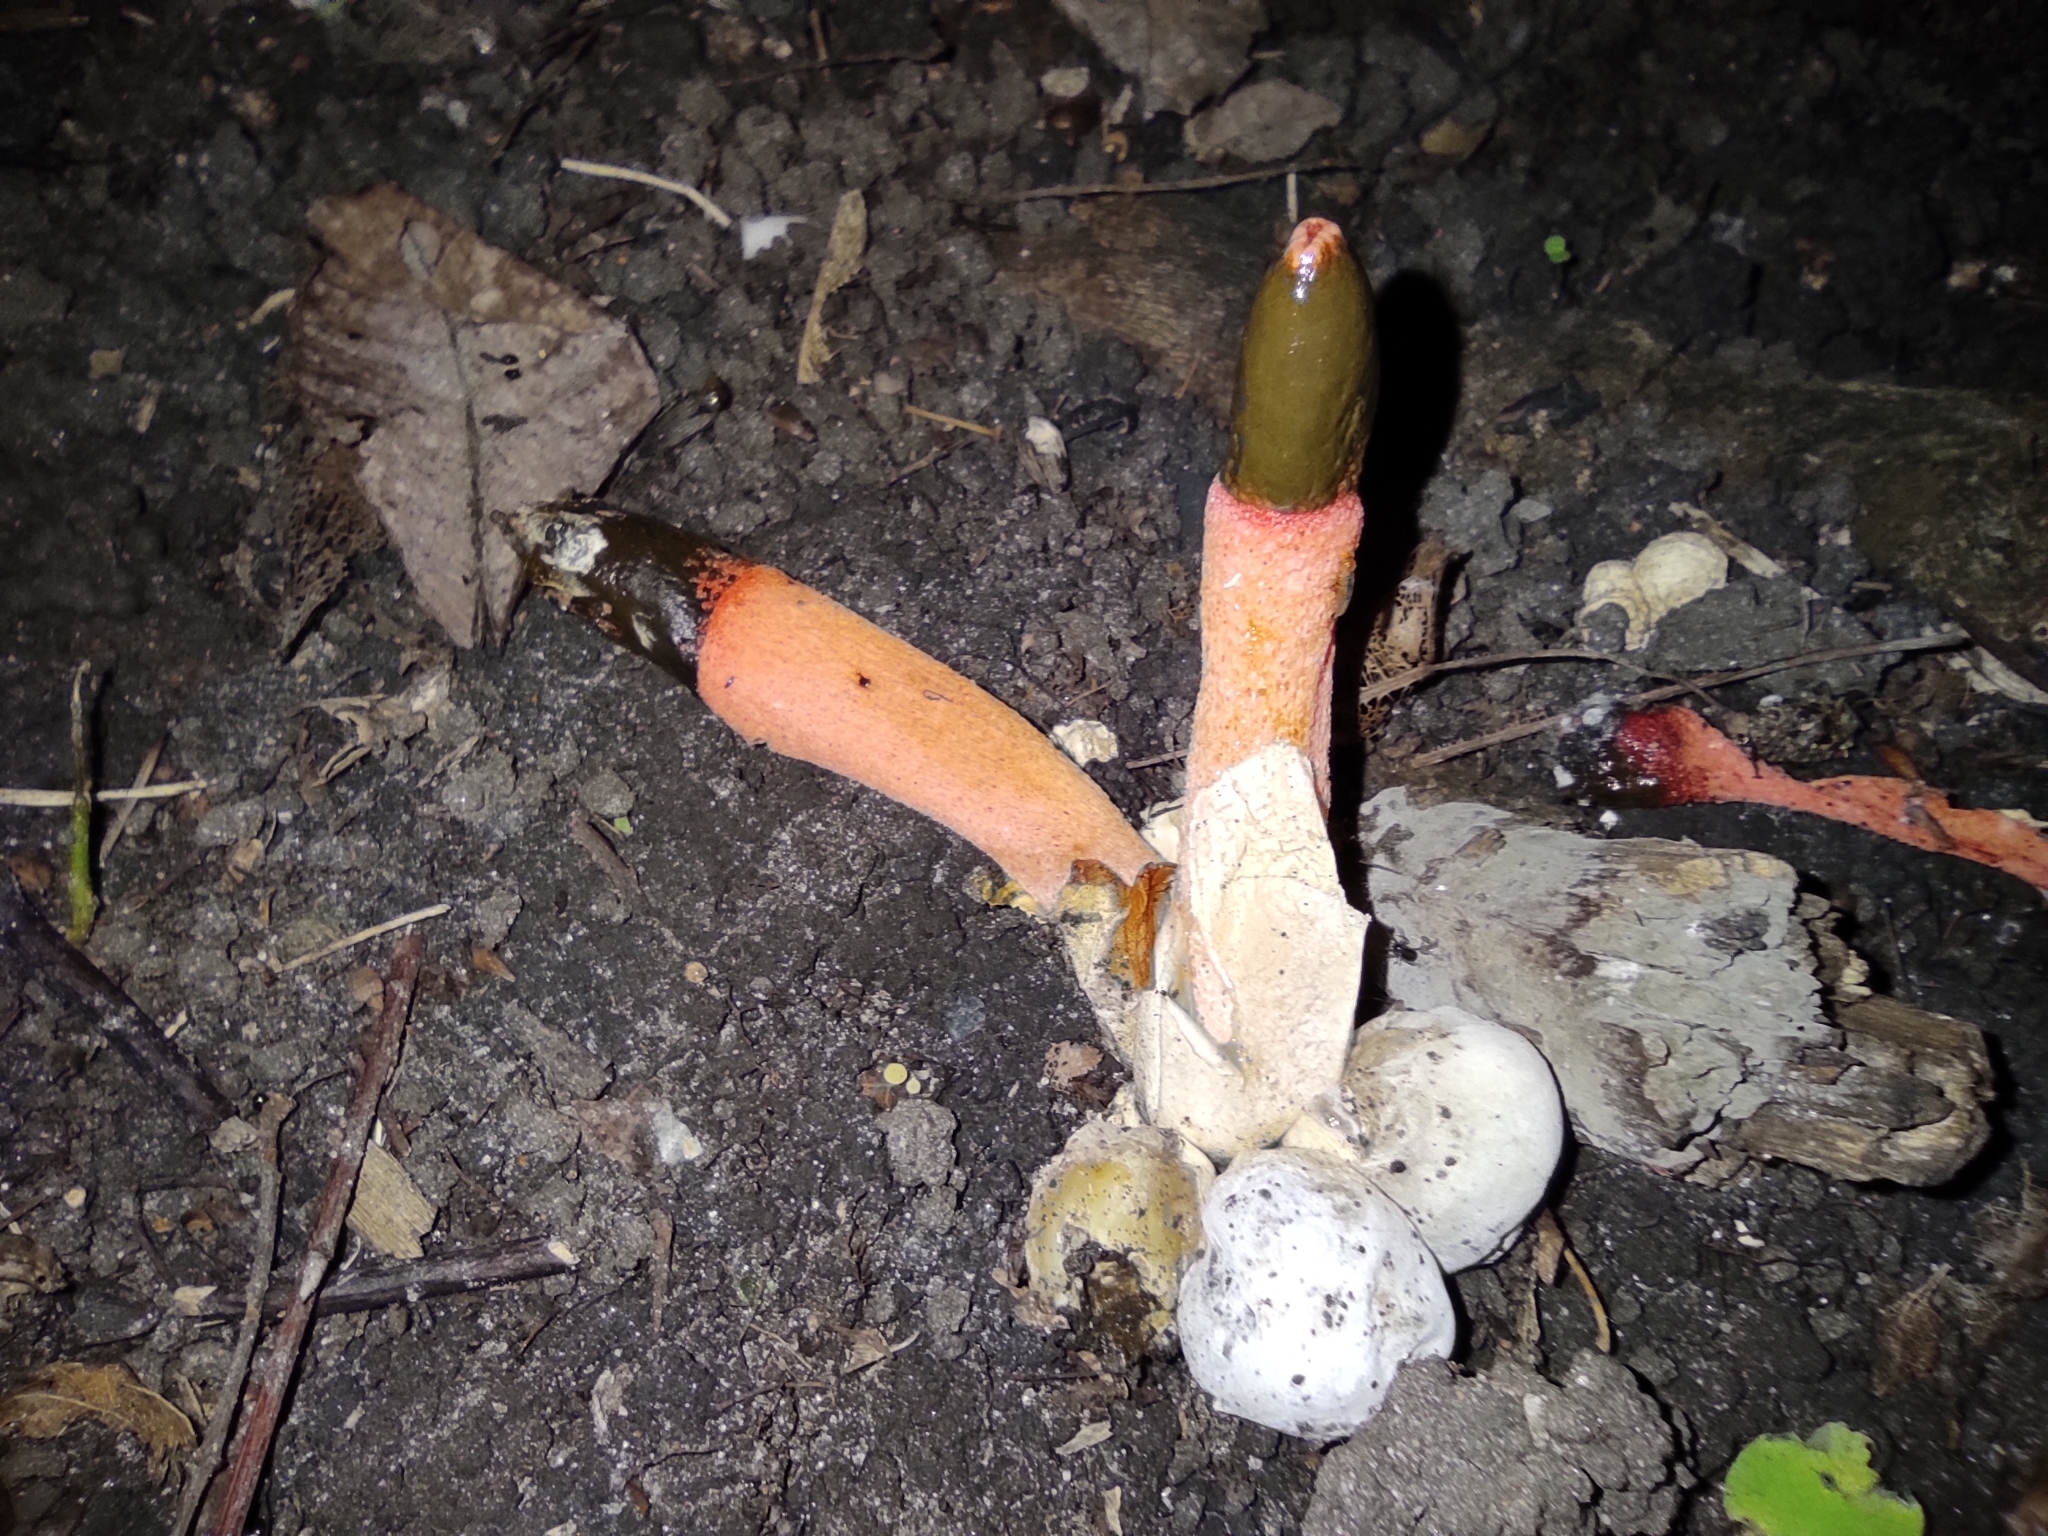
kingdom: Fungi
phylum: Basidiomycota
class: Agaricomycetes
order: Phallales
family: Phallaceae
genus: Mutinus
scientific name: Mutinus caninus
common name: Dog stinkhorn
